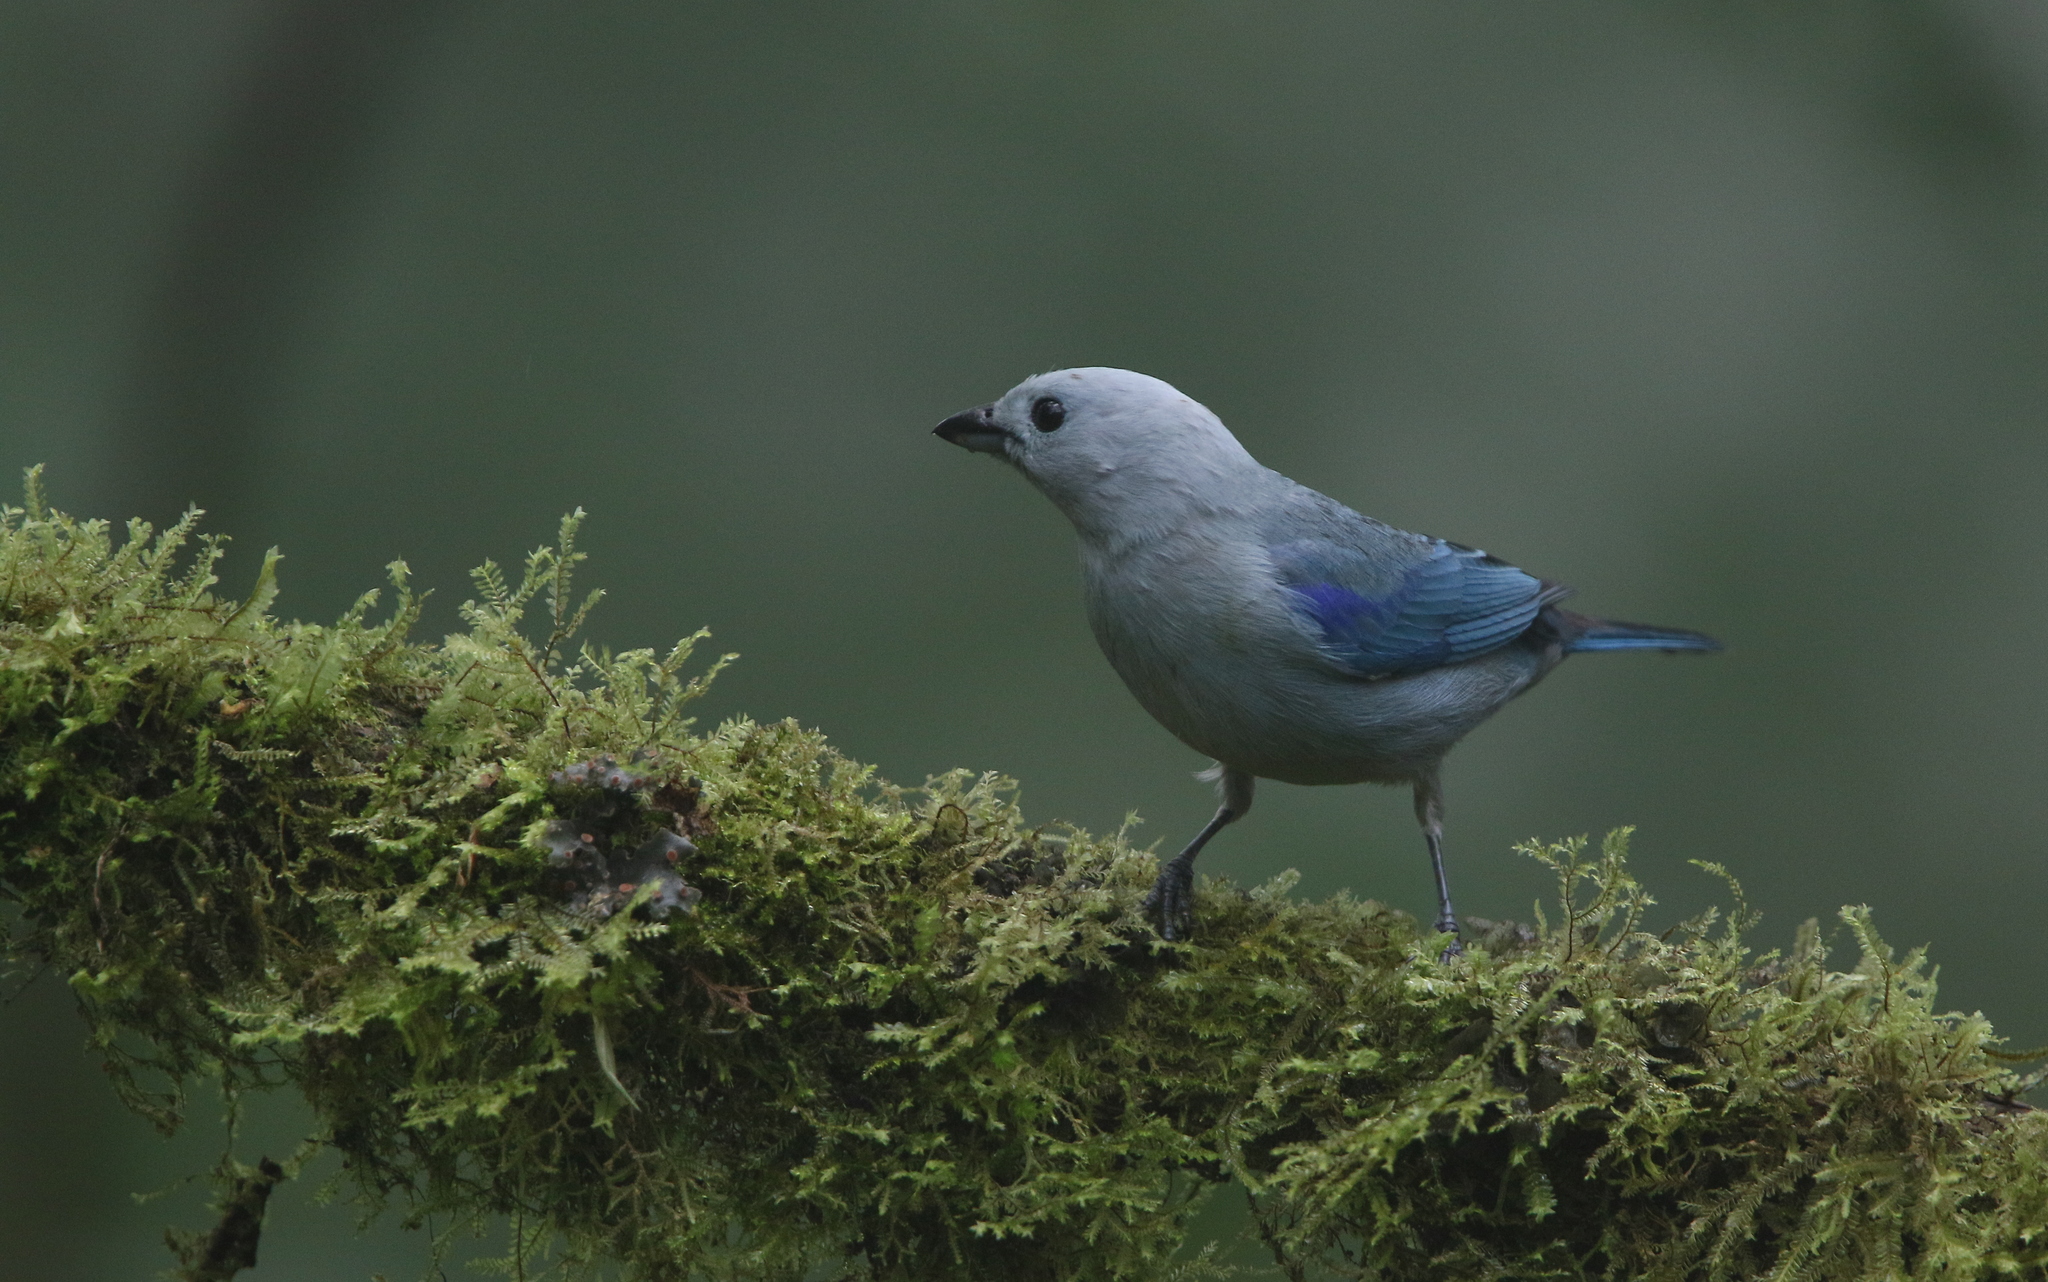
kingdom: Animalia
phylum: Chordata
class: Aves
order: Passeriformes
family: Thraupidae
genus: Thraupis
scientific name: Thraupis episcopus
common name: Blue-grey tanager
